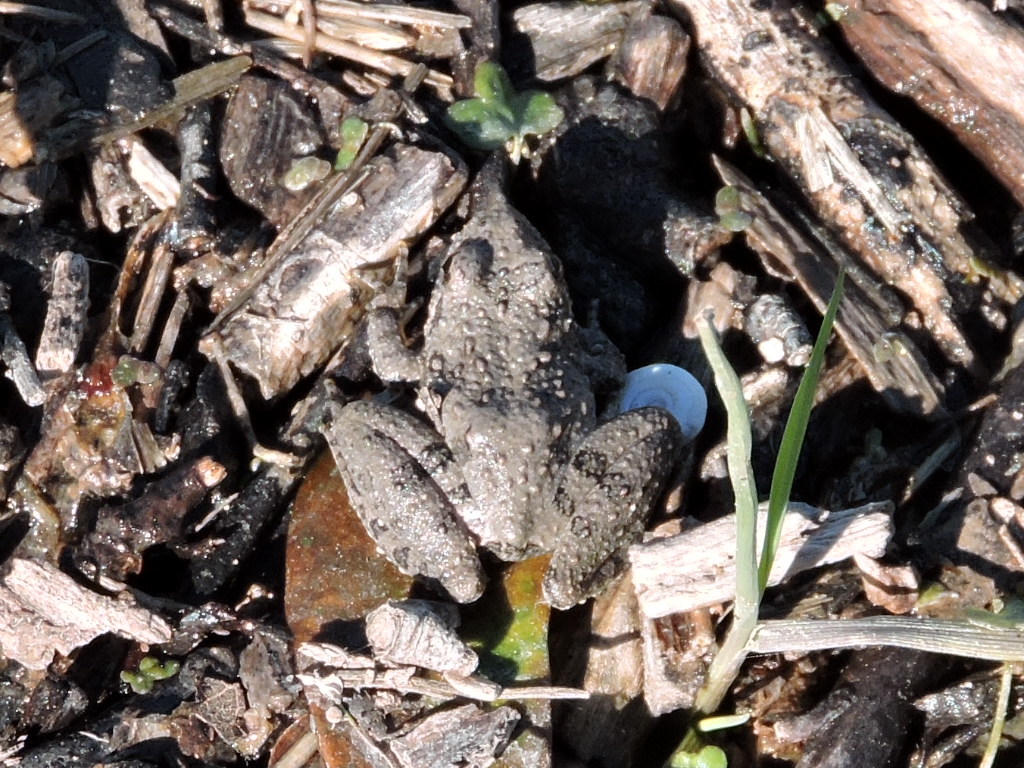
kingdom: Animalia
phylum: Chordata
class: Amphibia
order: Anura
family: Hylidae
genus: Acris
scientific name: Acris blanchardi
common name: Blanchard's cricket frog
